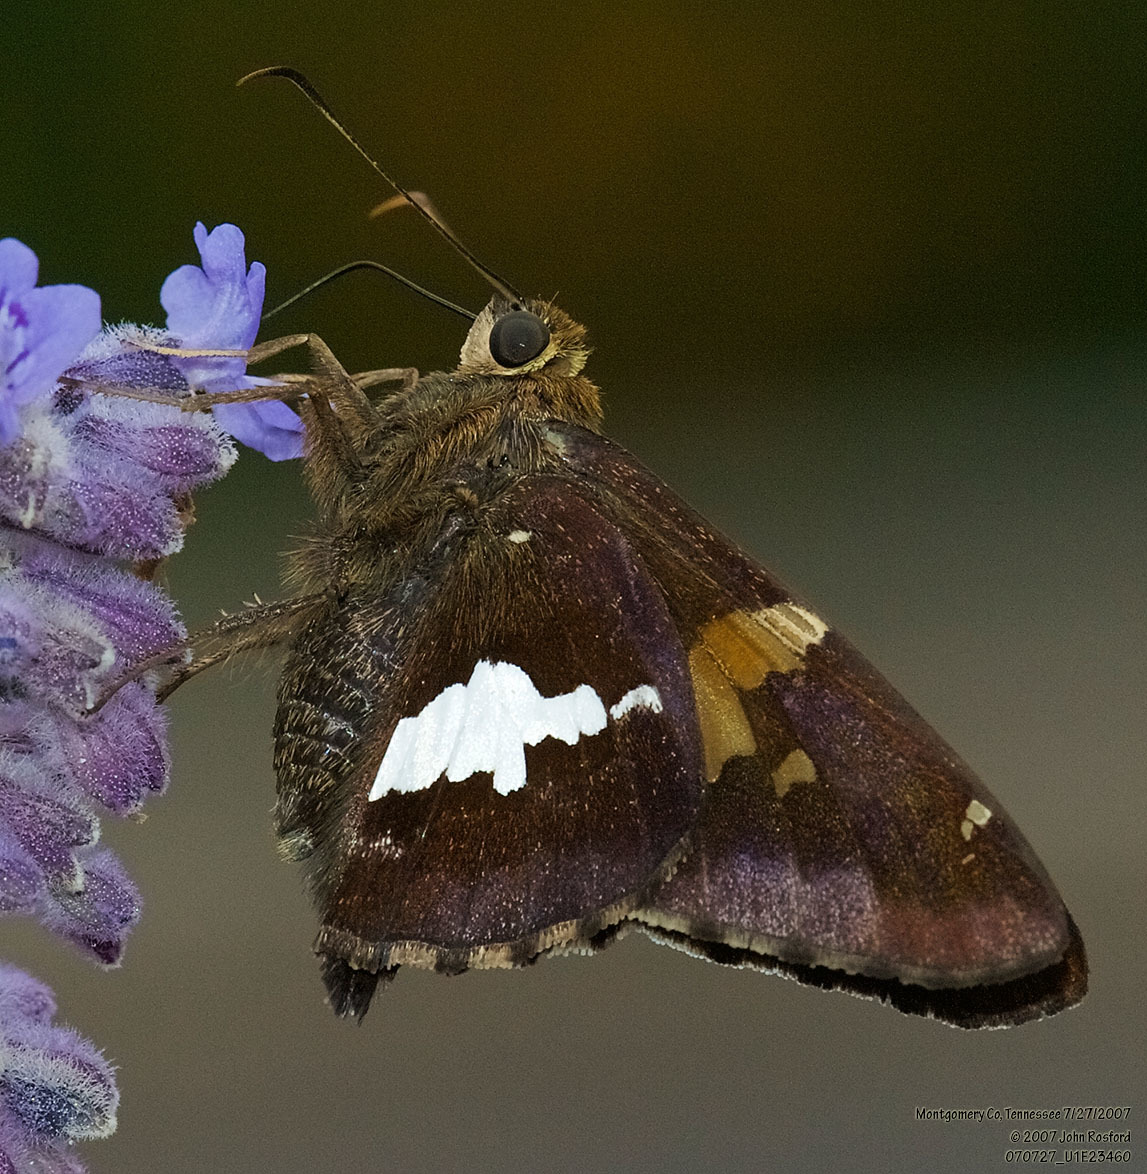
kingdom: Animalia
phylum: Arthropoda
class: Insecta
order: Lepidoptera
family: Hesperiidae
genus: Epargyreus
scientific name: Epargyreus clarus
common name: Silver-spotted skipper
